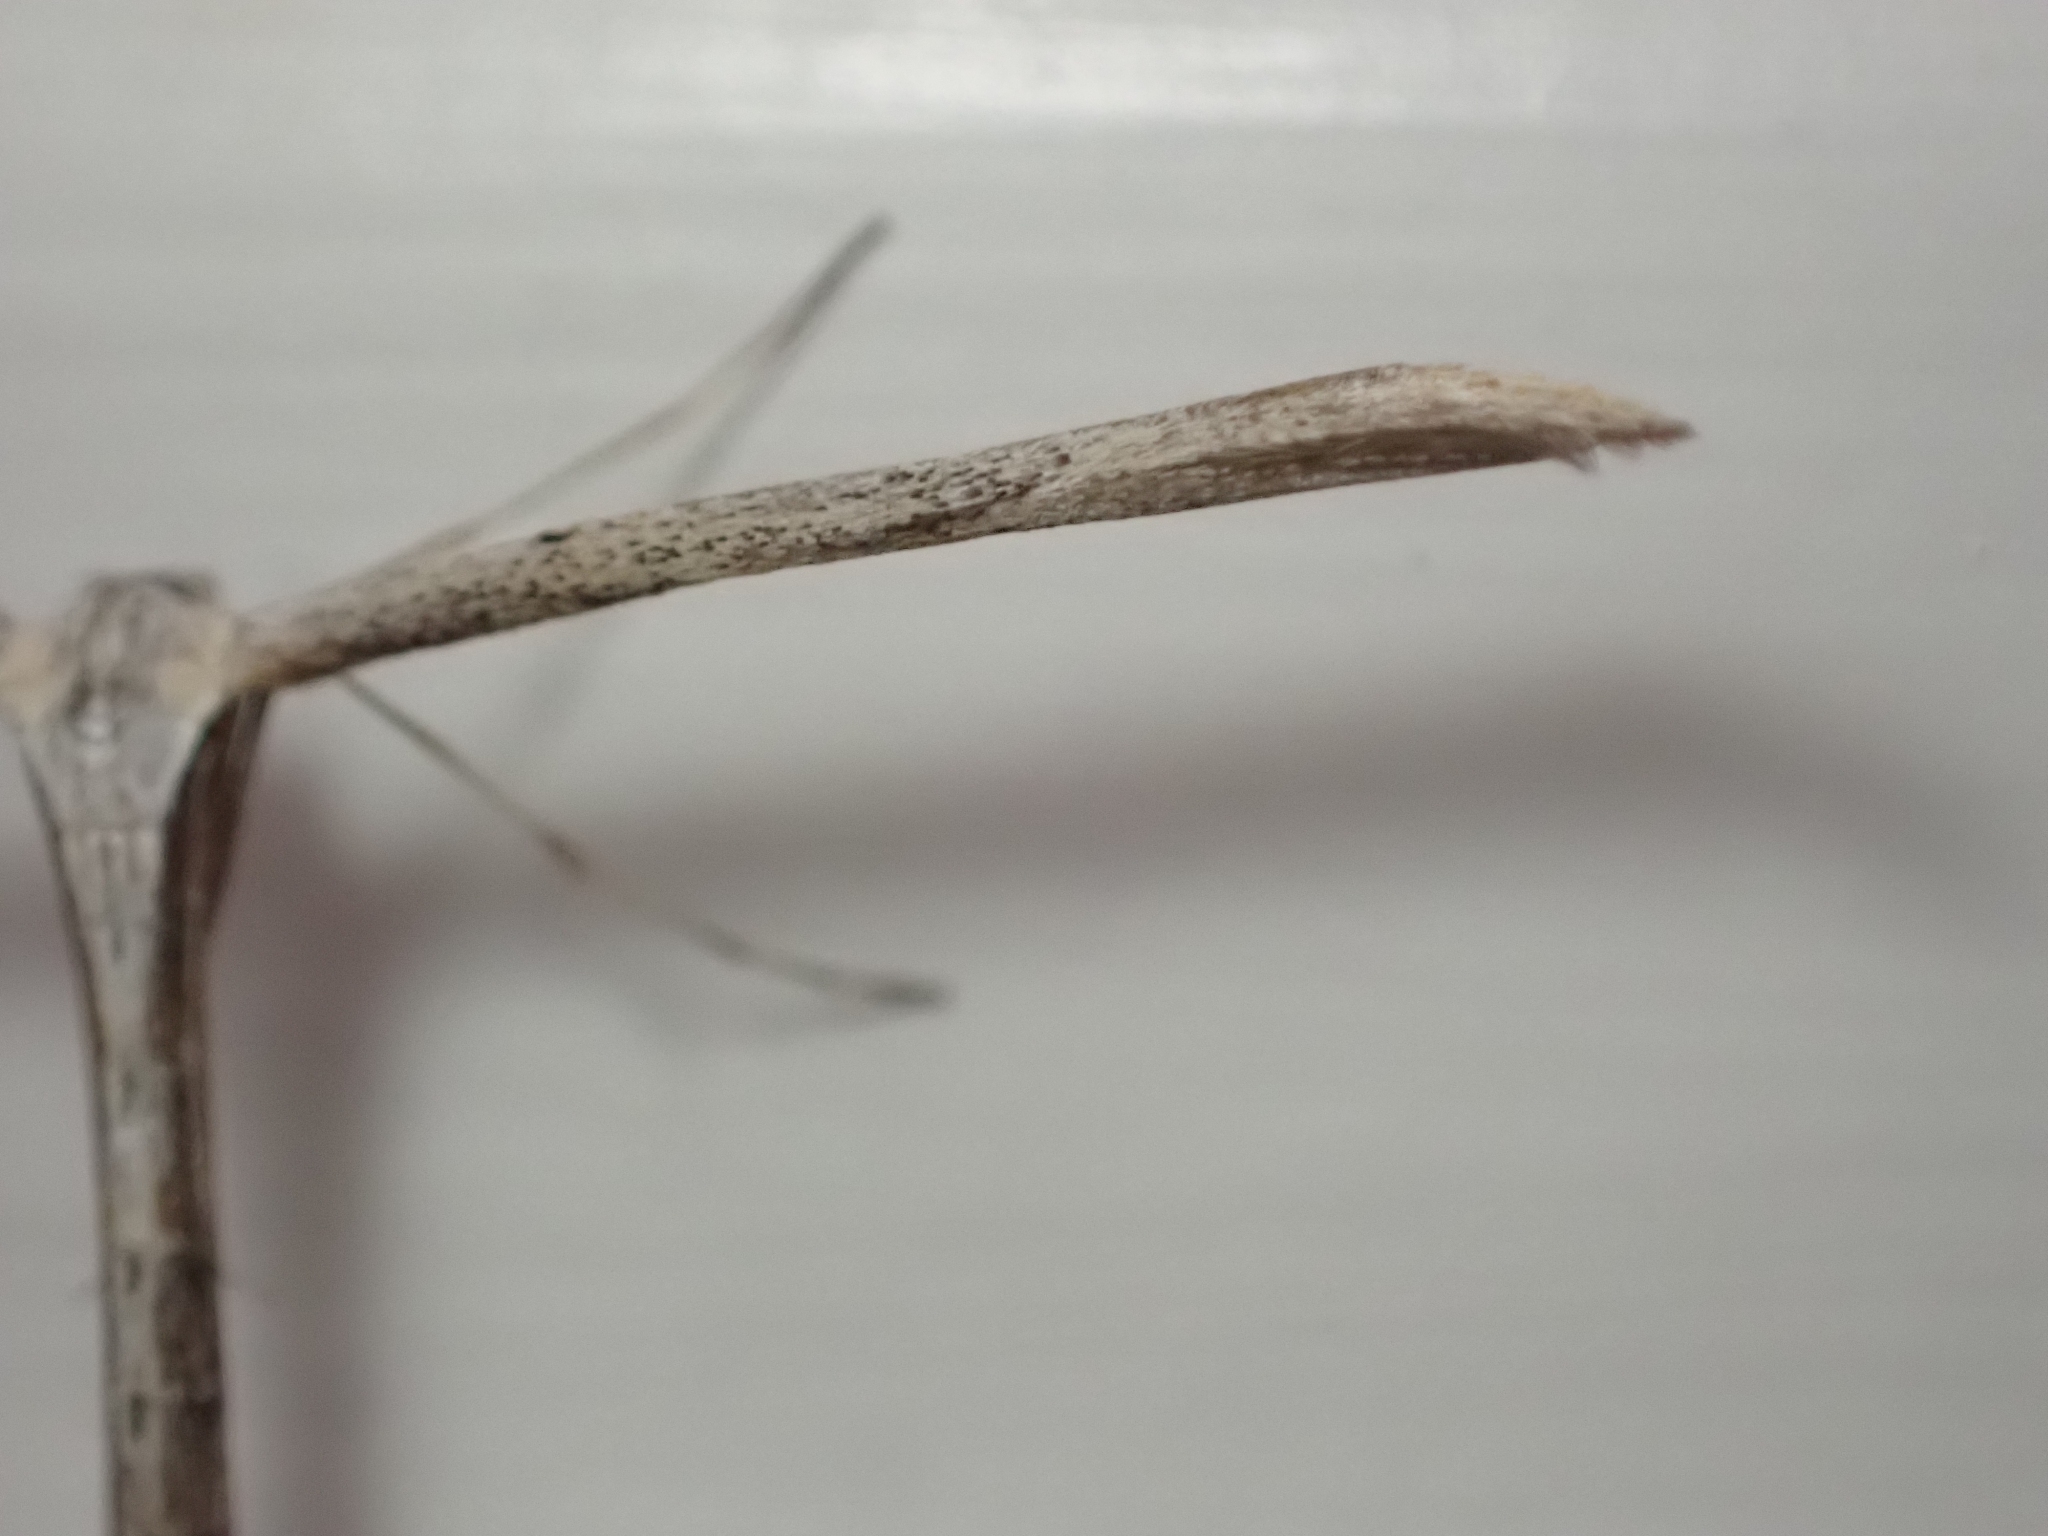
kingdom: Animalia
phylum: Arthropoda
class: Insecta
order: Lepidoptera
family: Pterophoridae
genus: Emmelina
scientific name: Emmelina monodactyla
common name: Common plume
